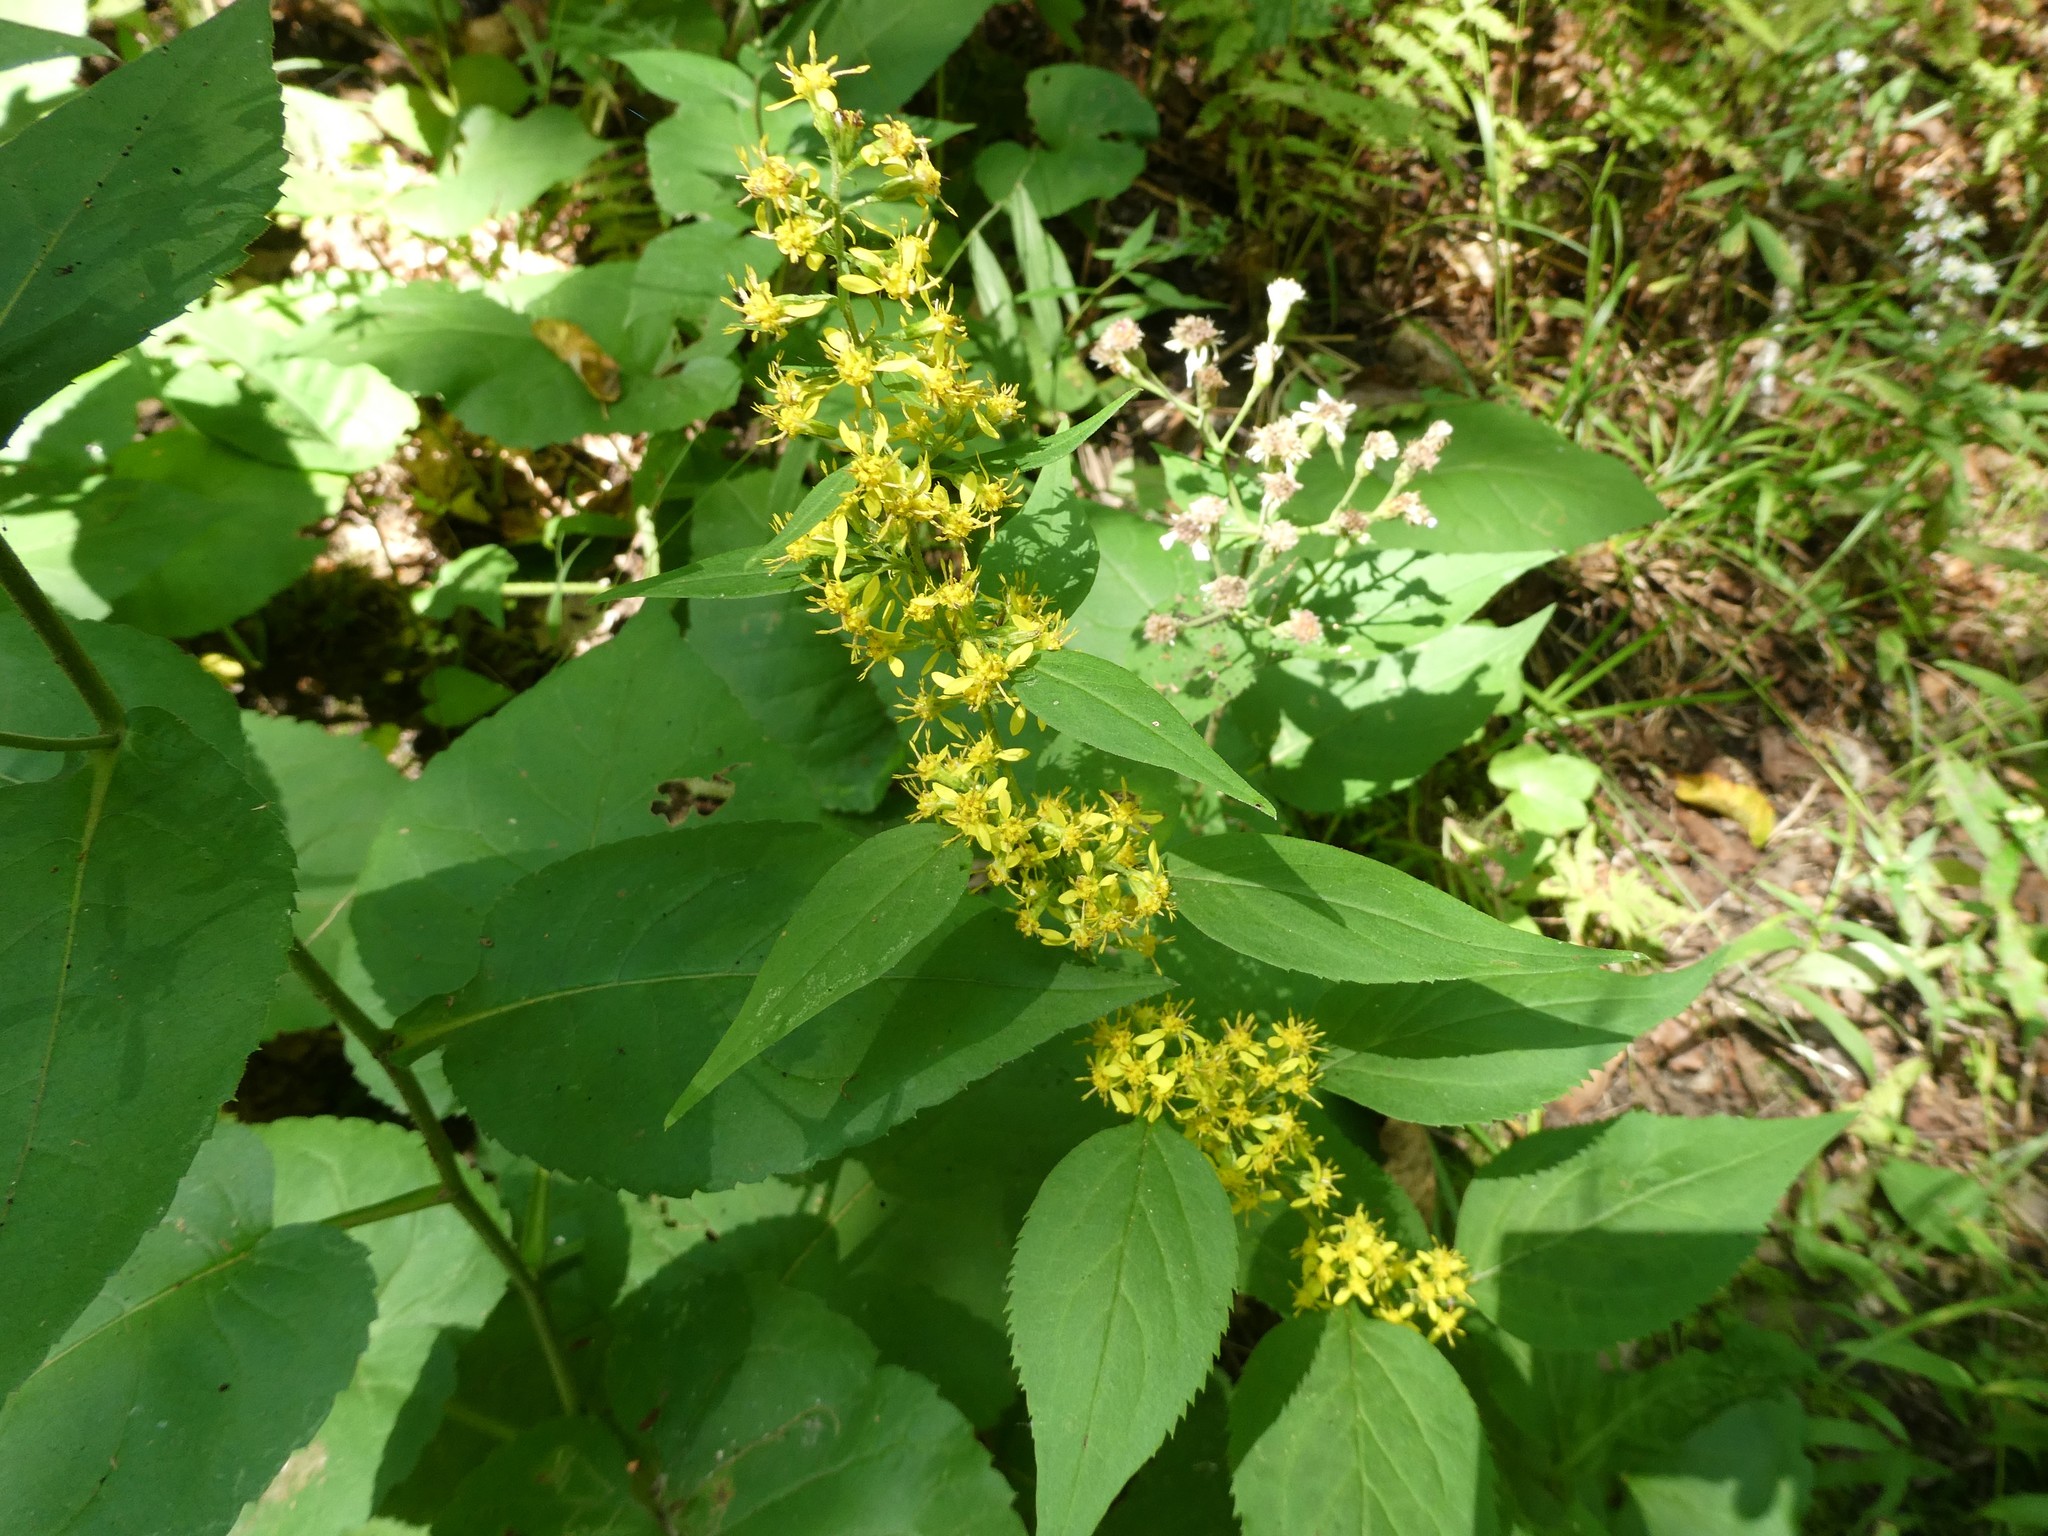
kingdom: Plantae
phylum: Tracheophyta
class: Magnoliopsida
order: Asterales
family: Asteraceae
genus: Solidago
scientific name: Solidago flexicaulis
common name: Zig-zag goldenrod
